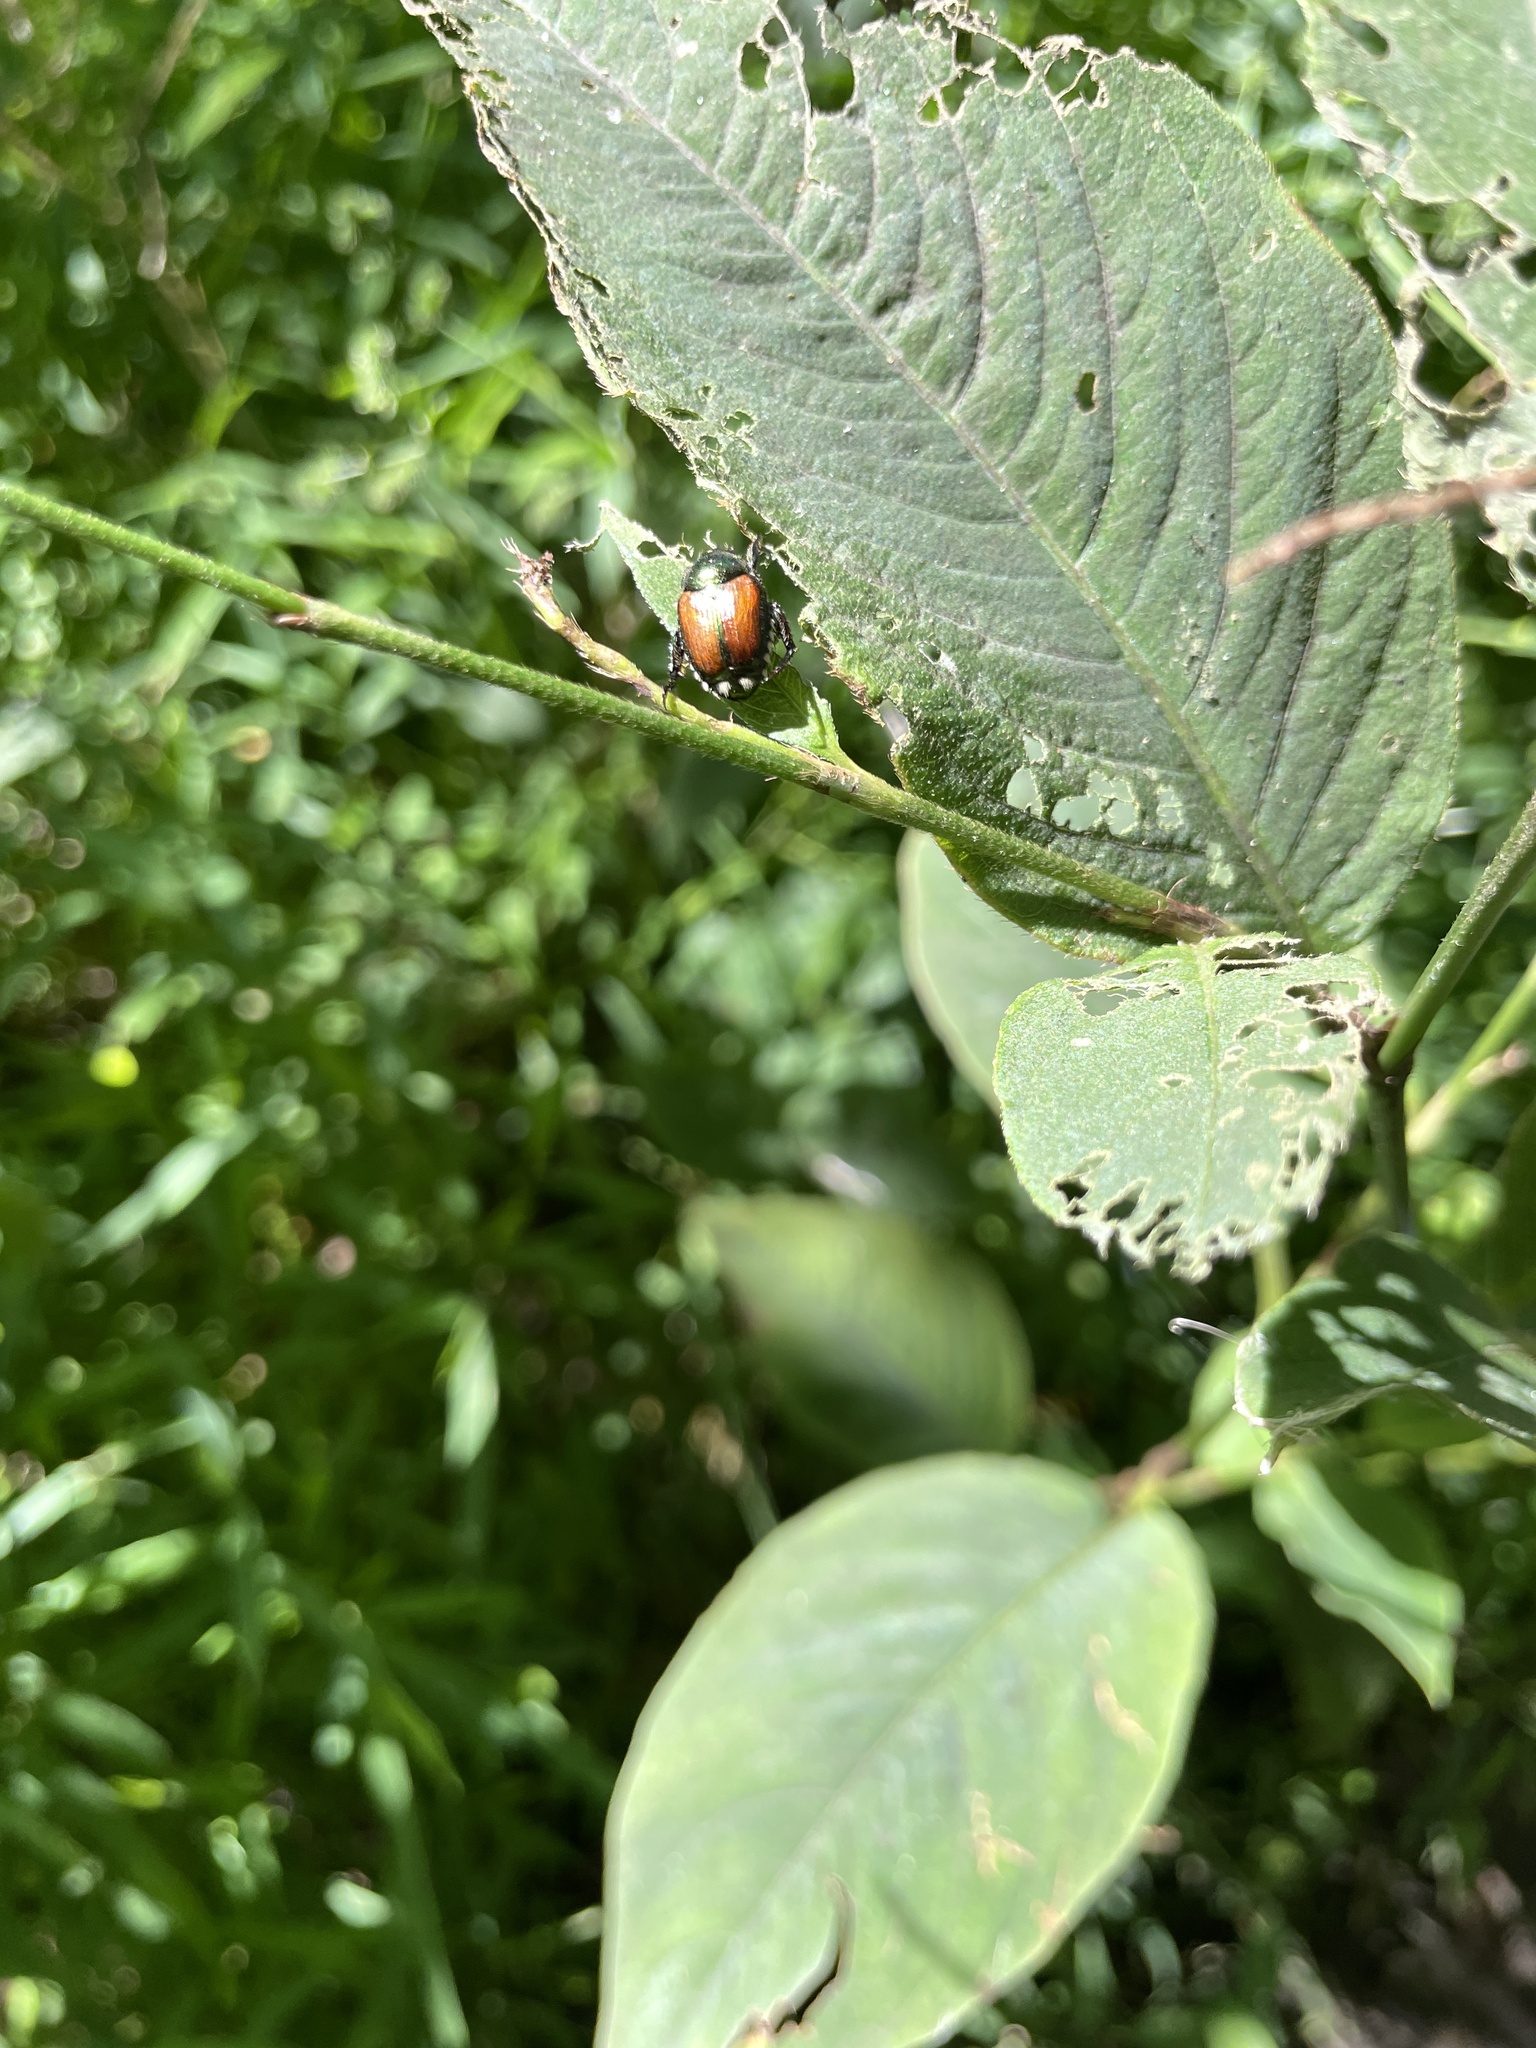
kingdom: Animalia
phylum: Arthropoda
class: Insecta
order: Coleoptera
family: Scarabaeidae
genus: Popillia
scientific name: Popillia japonica
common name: Japanese beetle
